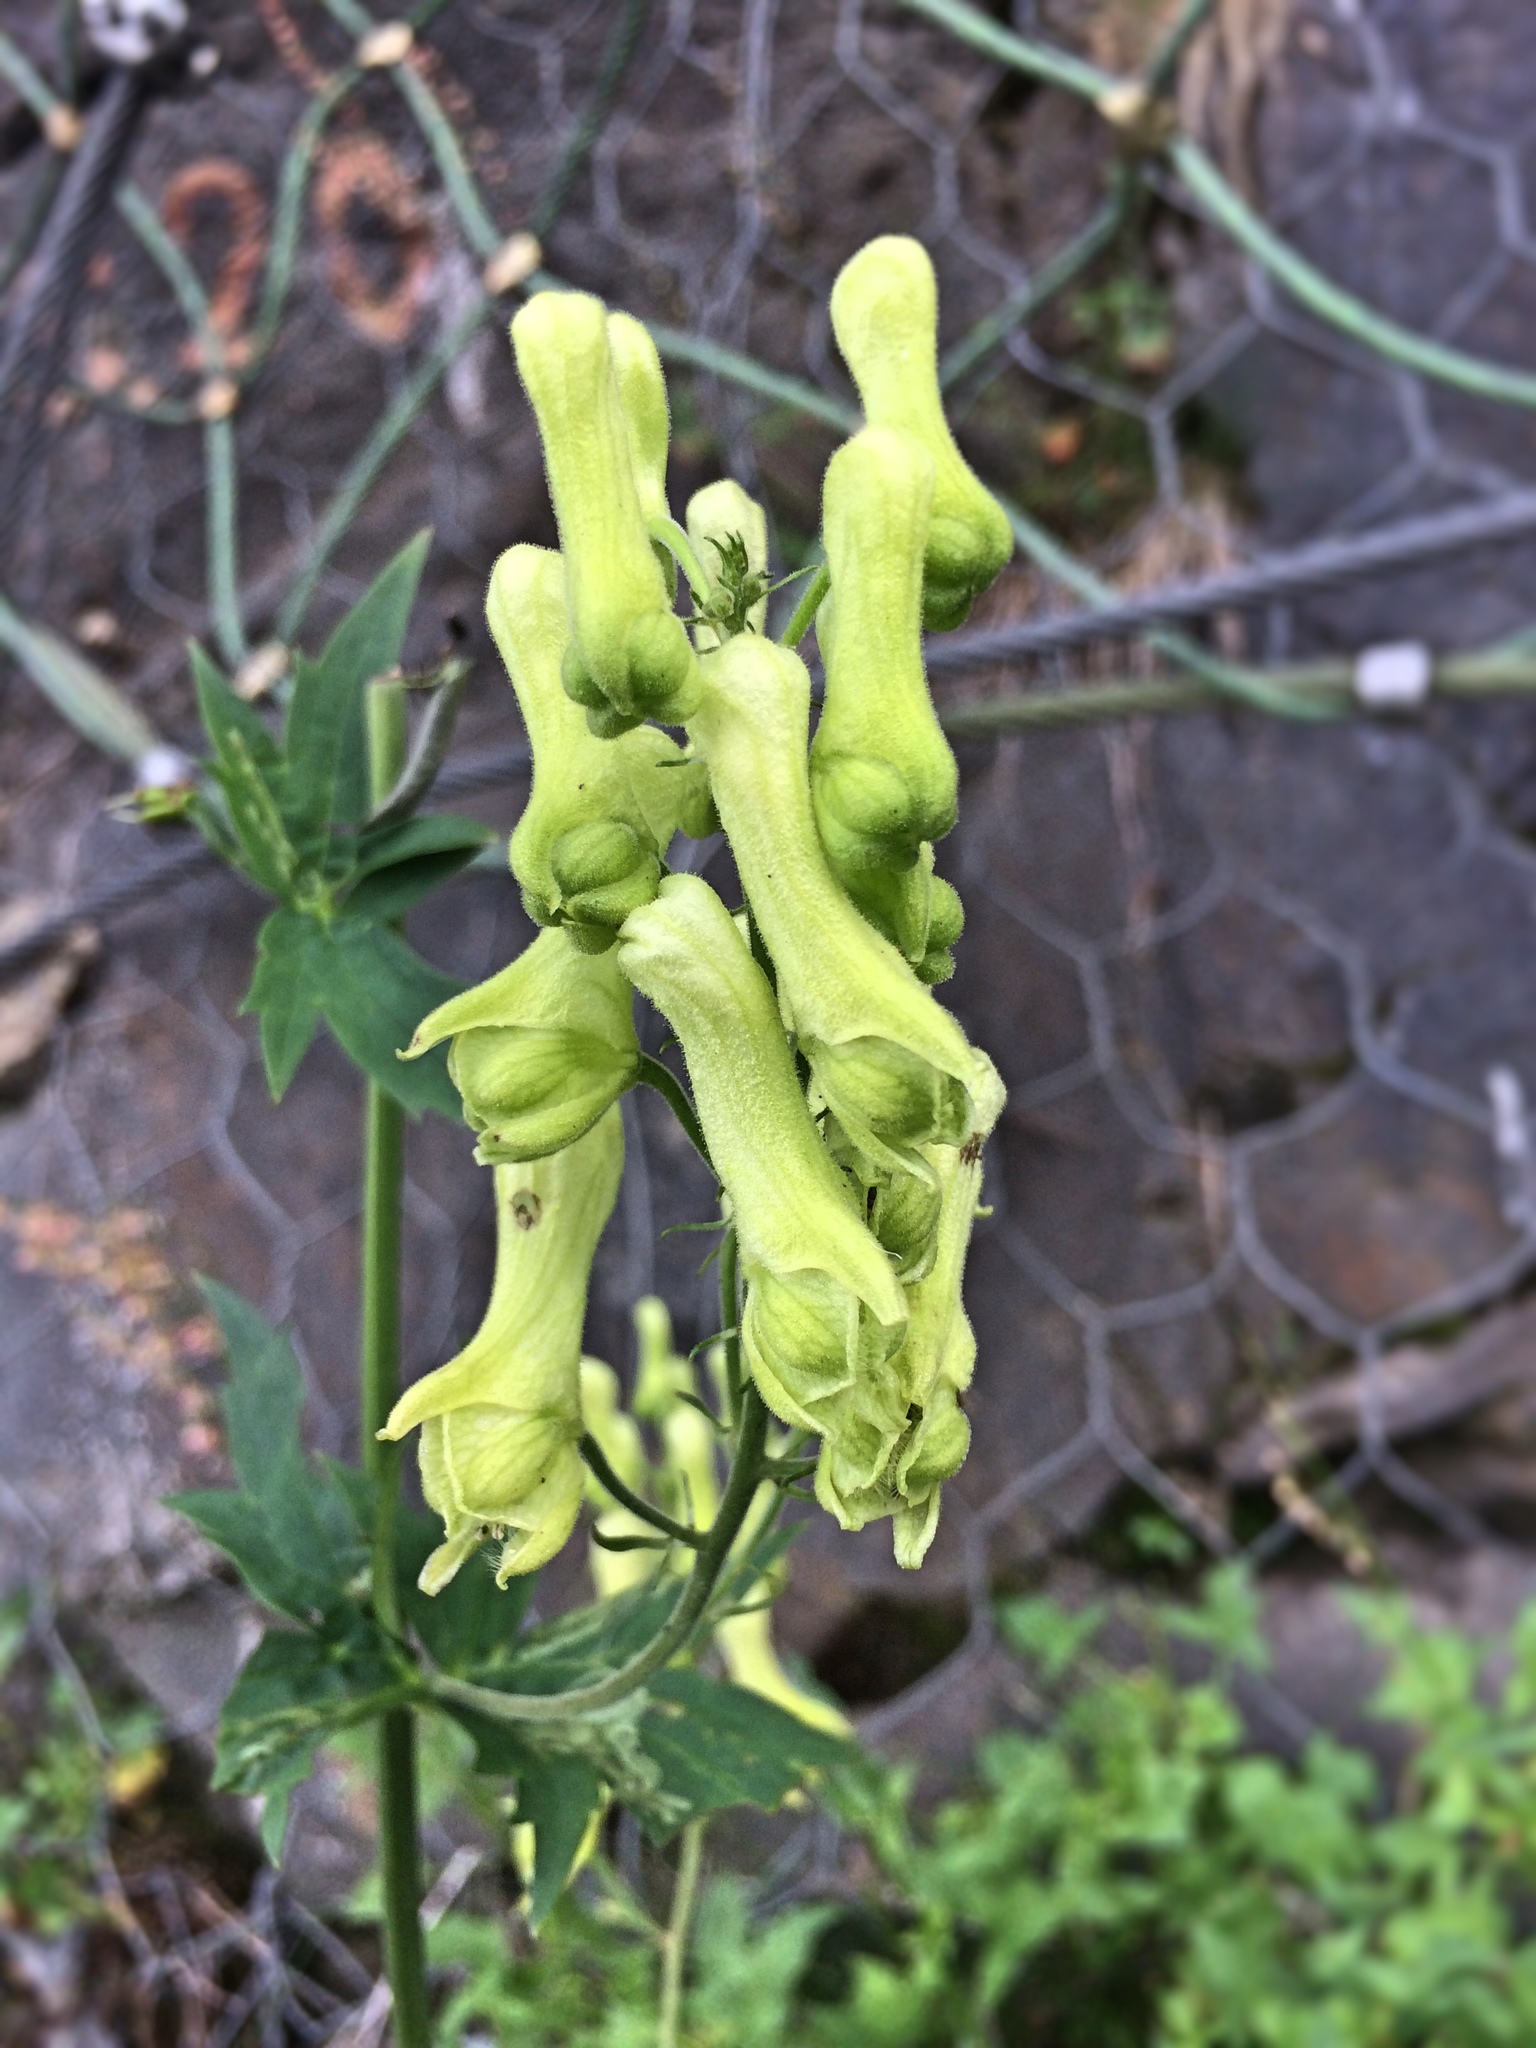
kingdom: Plantae
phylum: Tracheophyta
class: Magnoliopsida
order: Ranunculales
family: Ranunculaceae
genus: Aconitum
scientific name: Aconitum lycoctonum
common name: Wolf's-bane
